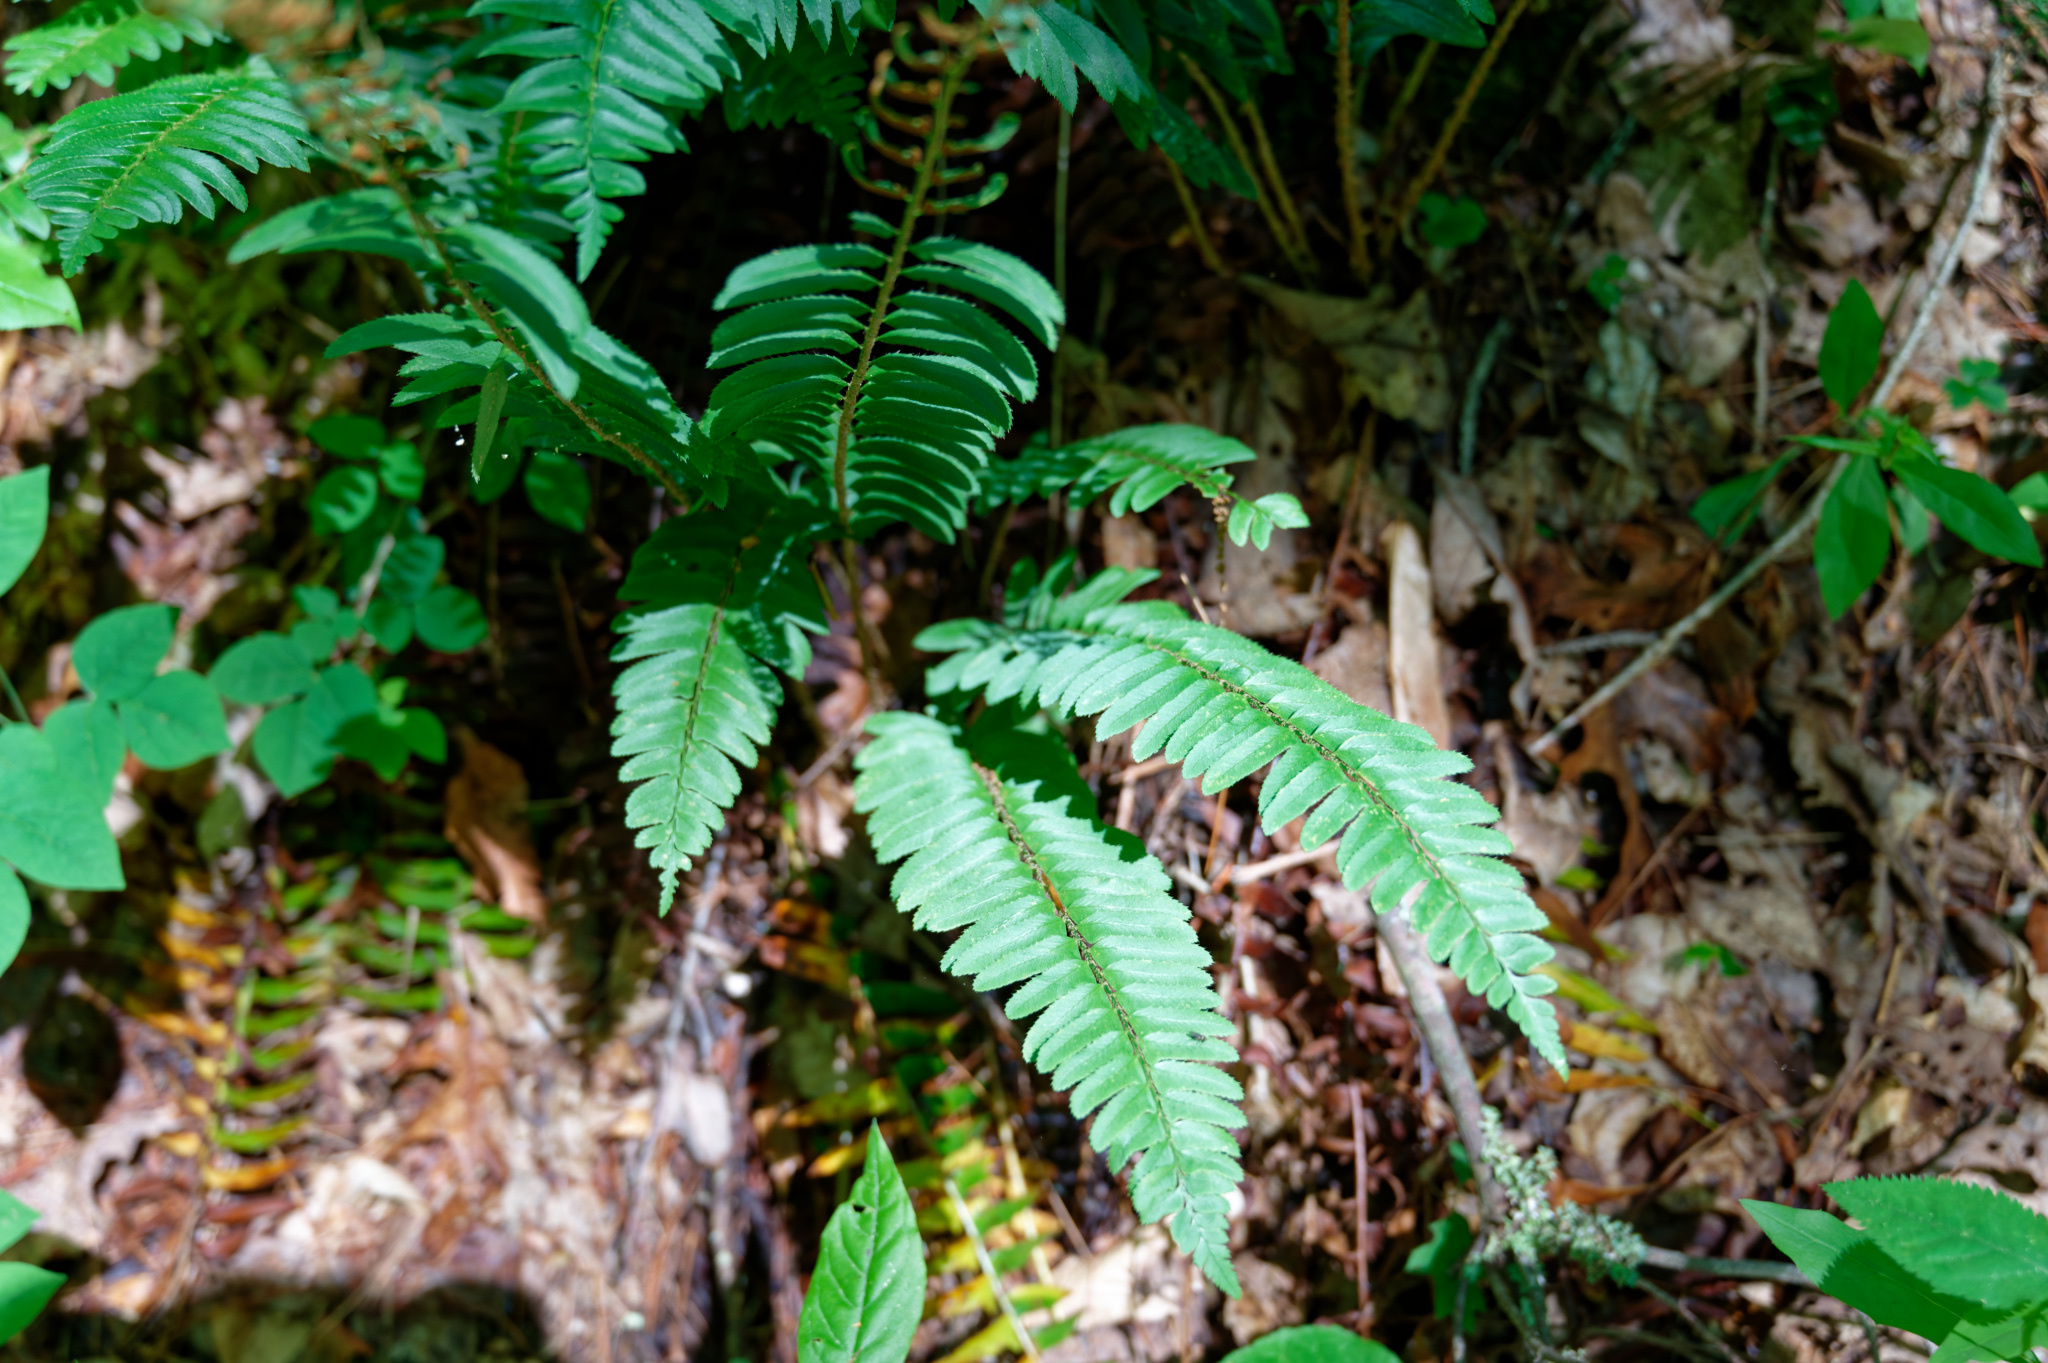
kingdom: Plantae
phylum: Tracheophyta
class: Polypodiopsida
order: Polypodiales
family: Dryopteridaceae
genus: Polystichum
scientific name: Polystichum acrostichoides
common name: Christmas fern
